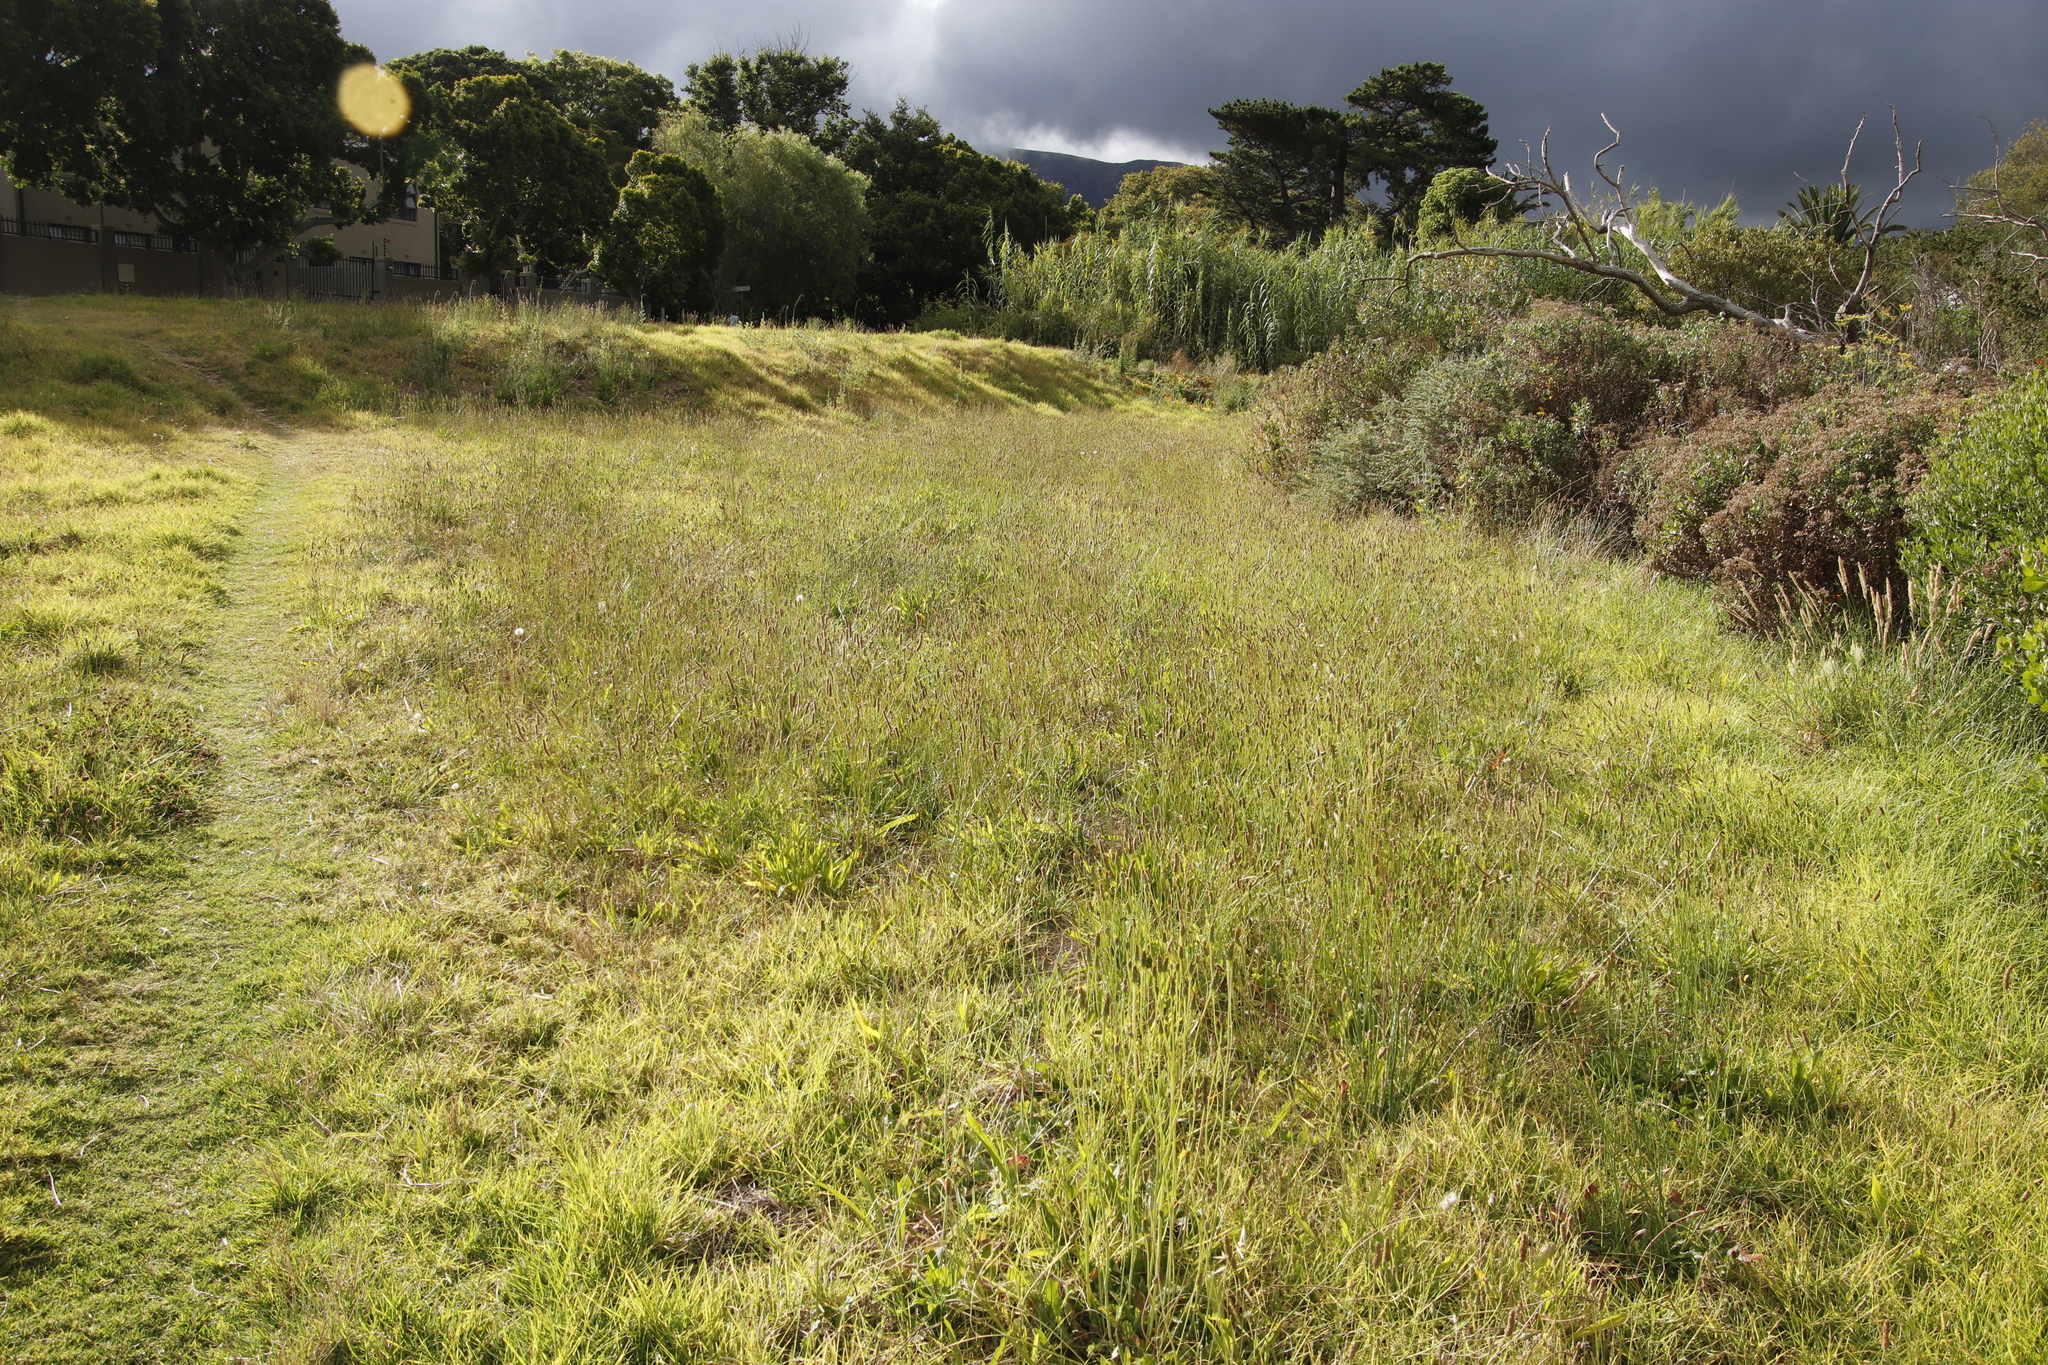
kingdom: Plantae
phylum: Tracheophyta
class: Magnoliopsida
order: Lamiales
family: Plantaginaceae
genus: Plantago
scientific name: Plantago lanceolata
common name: Ribwort plantain
